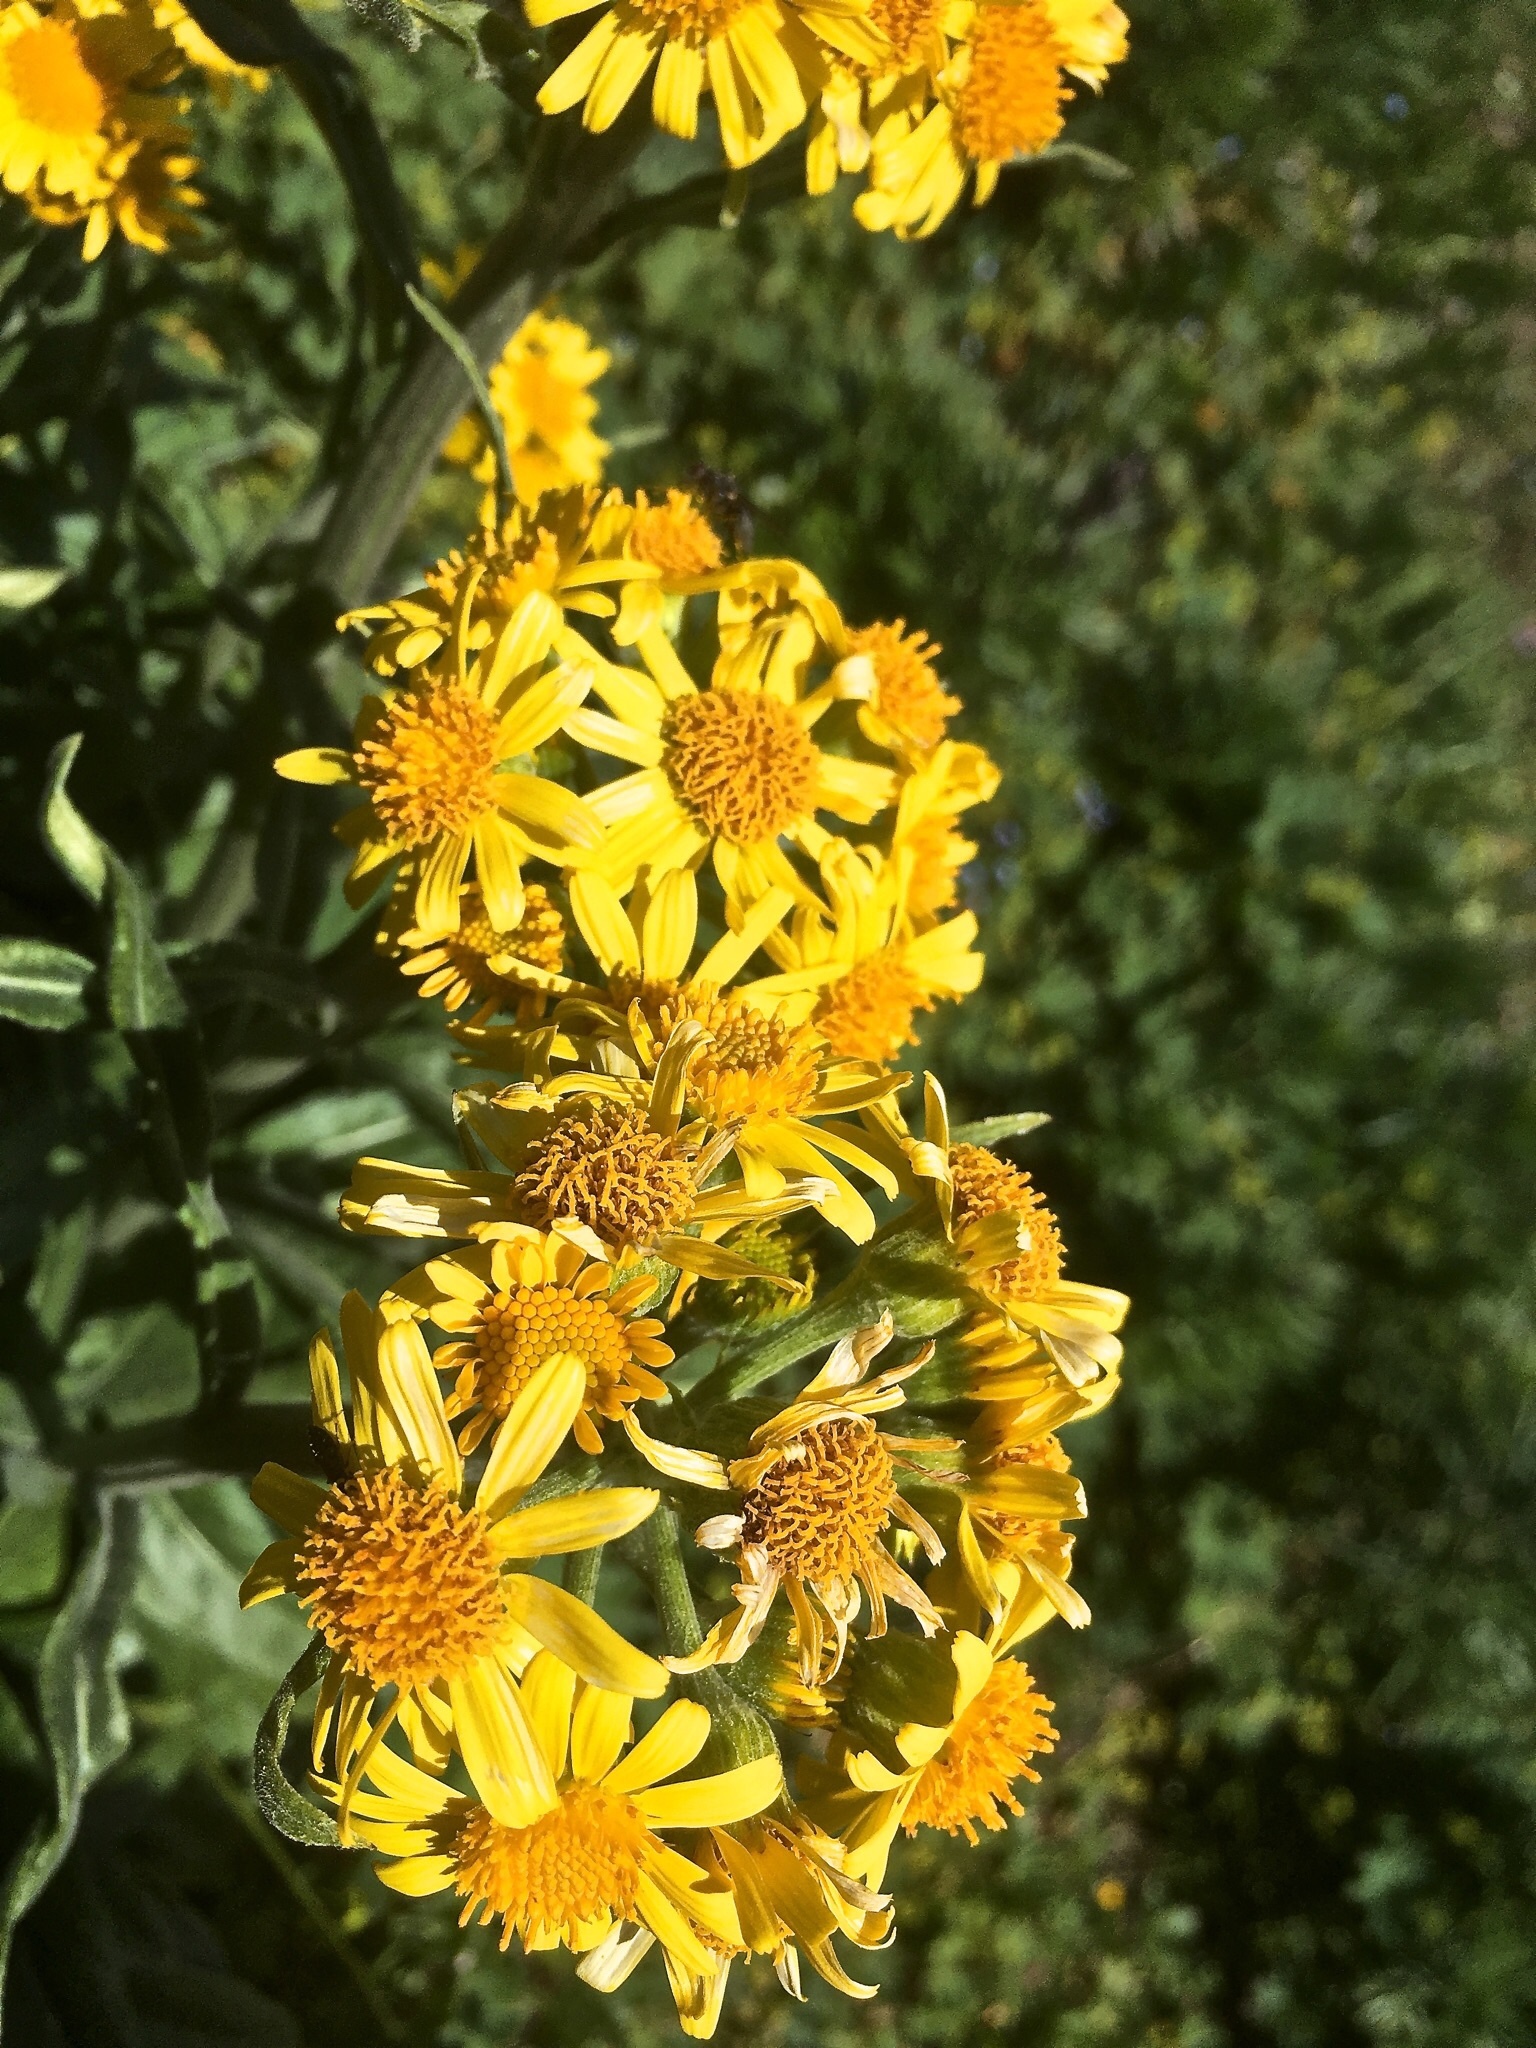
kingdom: Plantae
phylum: Tracheophyta
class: Magnoliopsida
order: Asterales
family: Asteraceae
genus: Tephroseris
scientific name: Tephroseris helenitis
